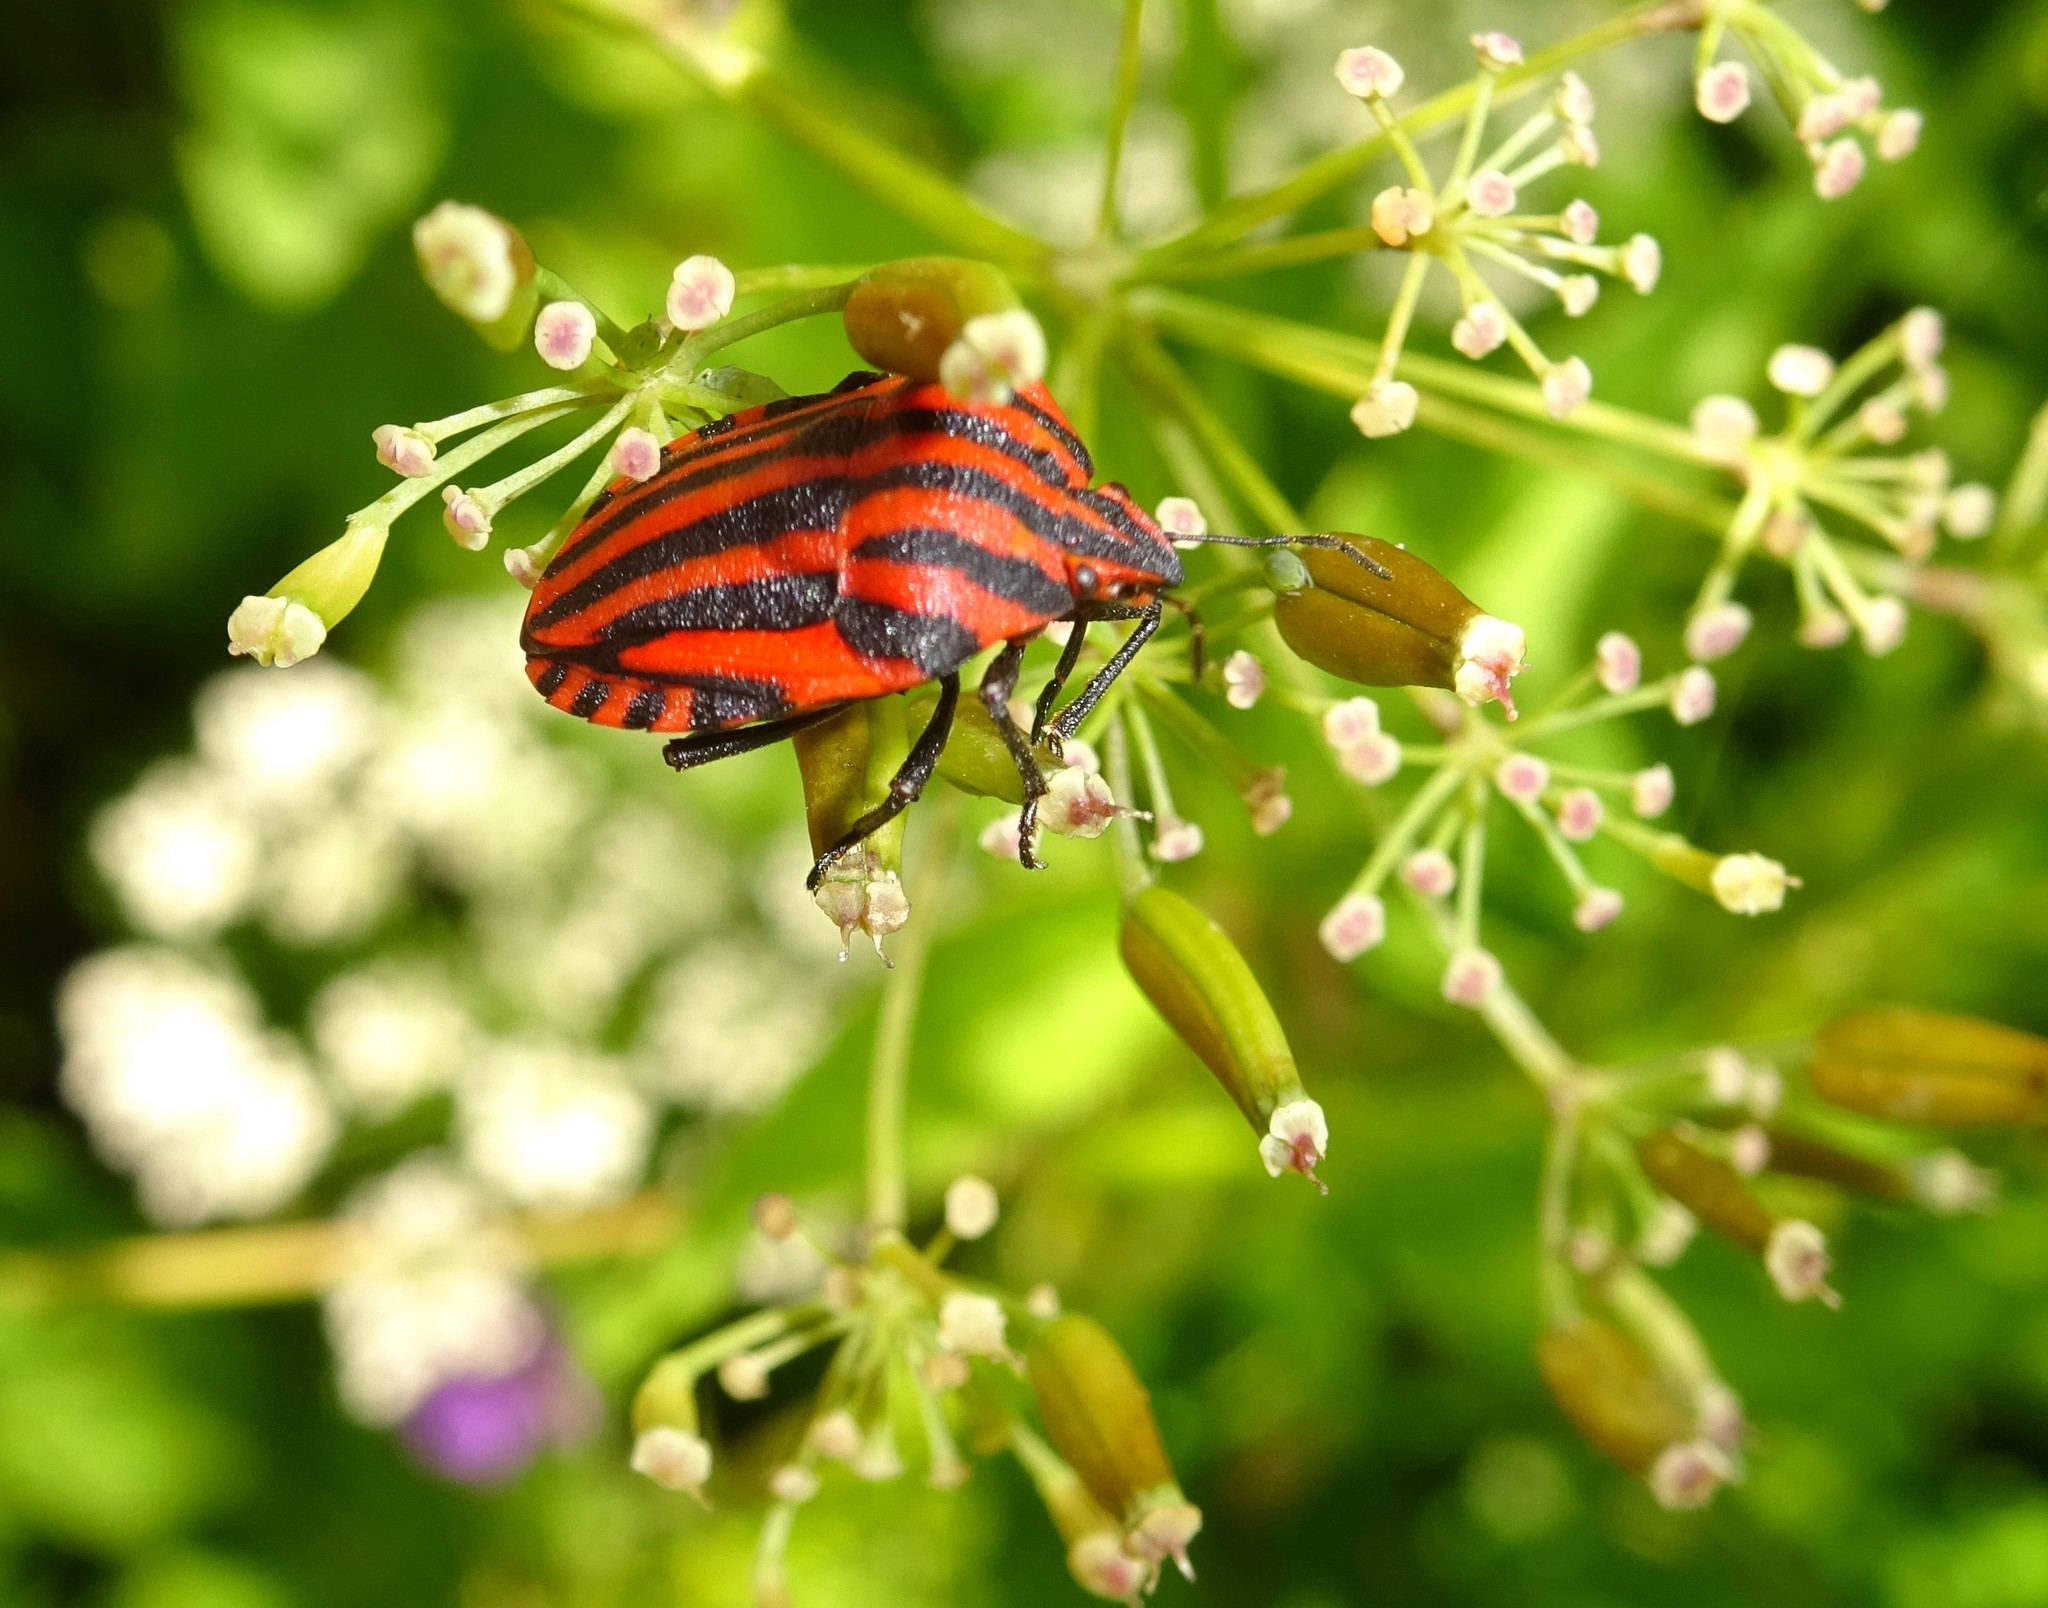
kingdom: Animalia
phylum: Arthropoda
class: Insecta
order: Hemiptera
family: Pentatomidae
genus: Graphosoma
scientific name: Graphosoma italicum
